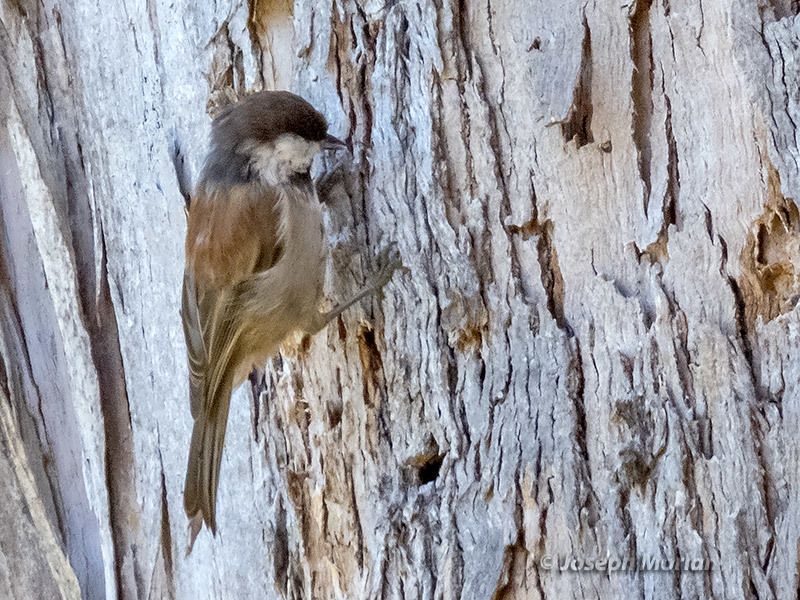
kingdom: Animalia
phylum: Chordata
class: Aves
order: Passeriformes
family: Paridae
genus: Poecile
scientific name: Poecile rufescens
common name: Chestnut-backed chickadee
